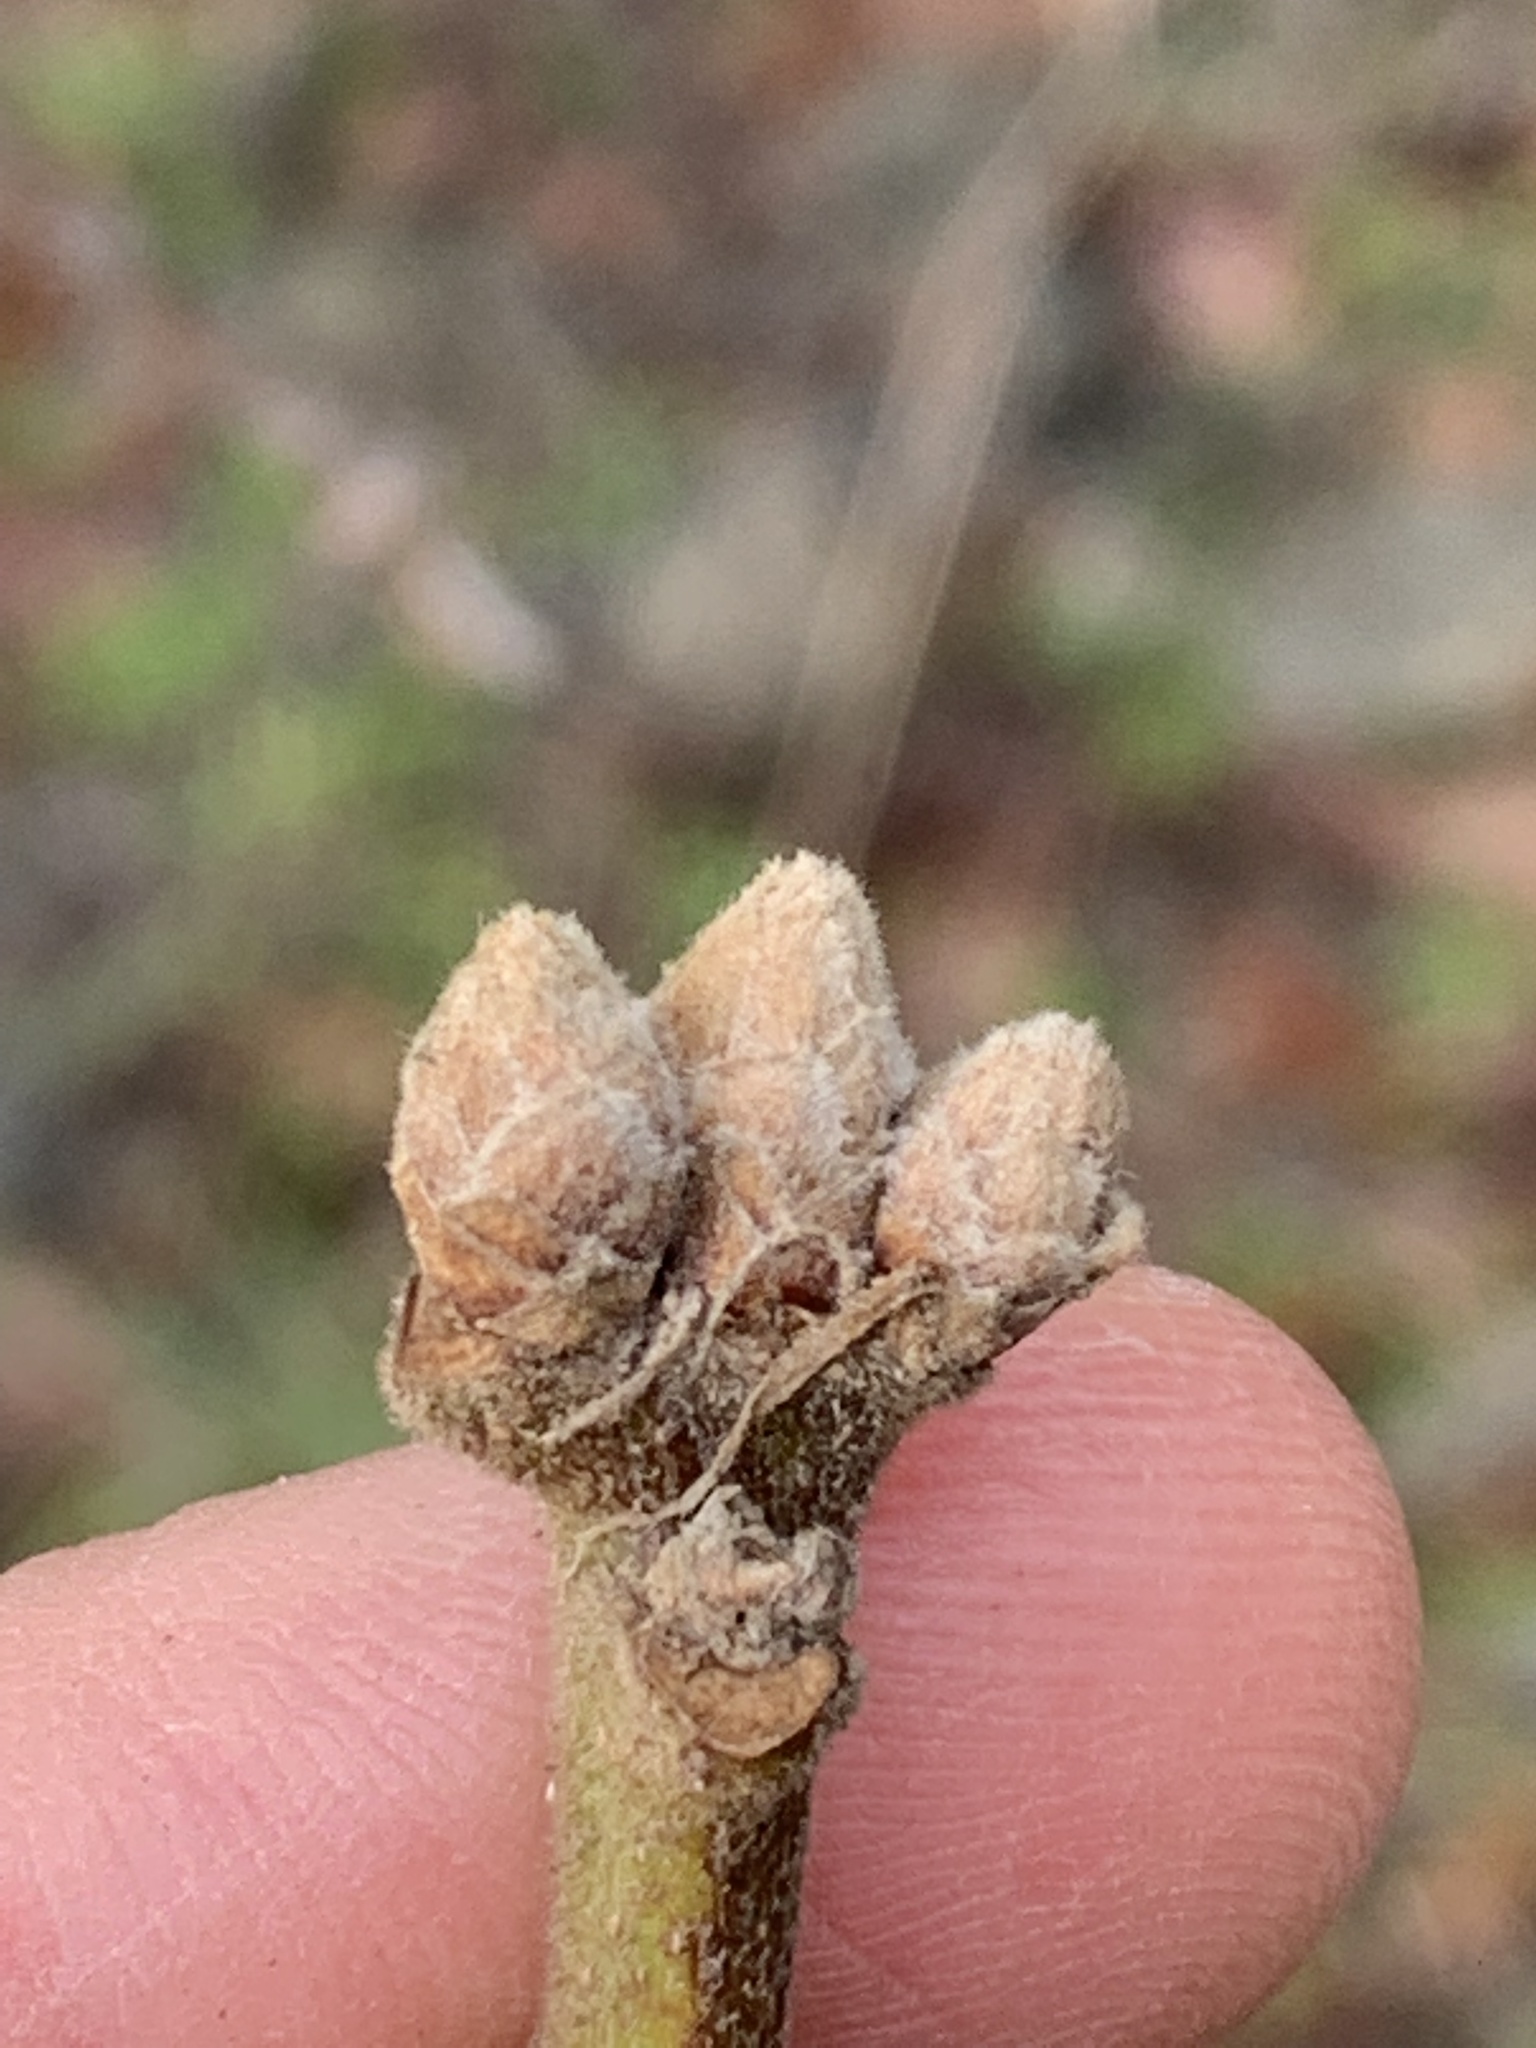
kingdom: Plantae
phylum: Tracheophyta
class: Magnoliopsida
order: Fagales
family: Fagaceae
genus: Quercus
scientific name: Quercus garryana
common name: Garry oak
